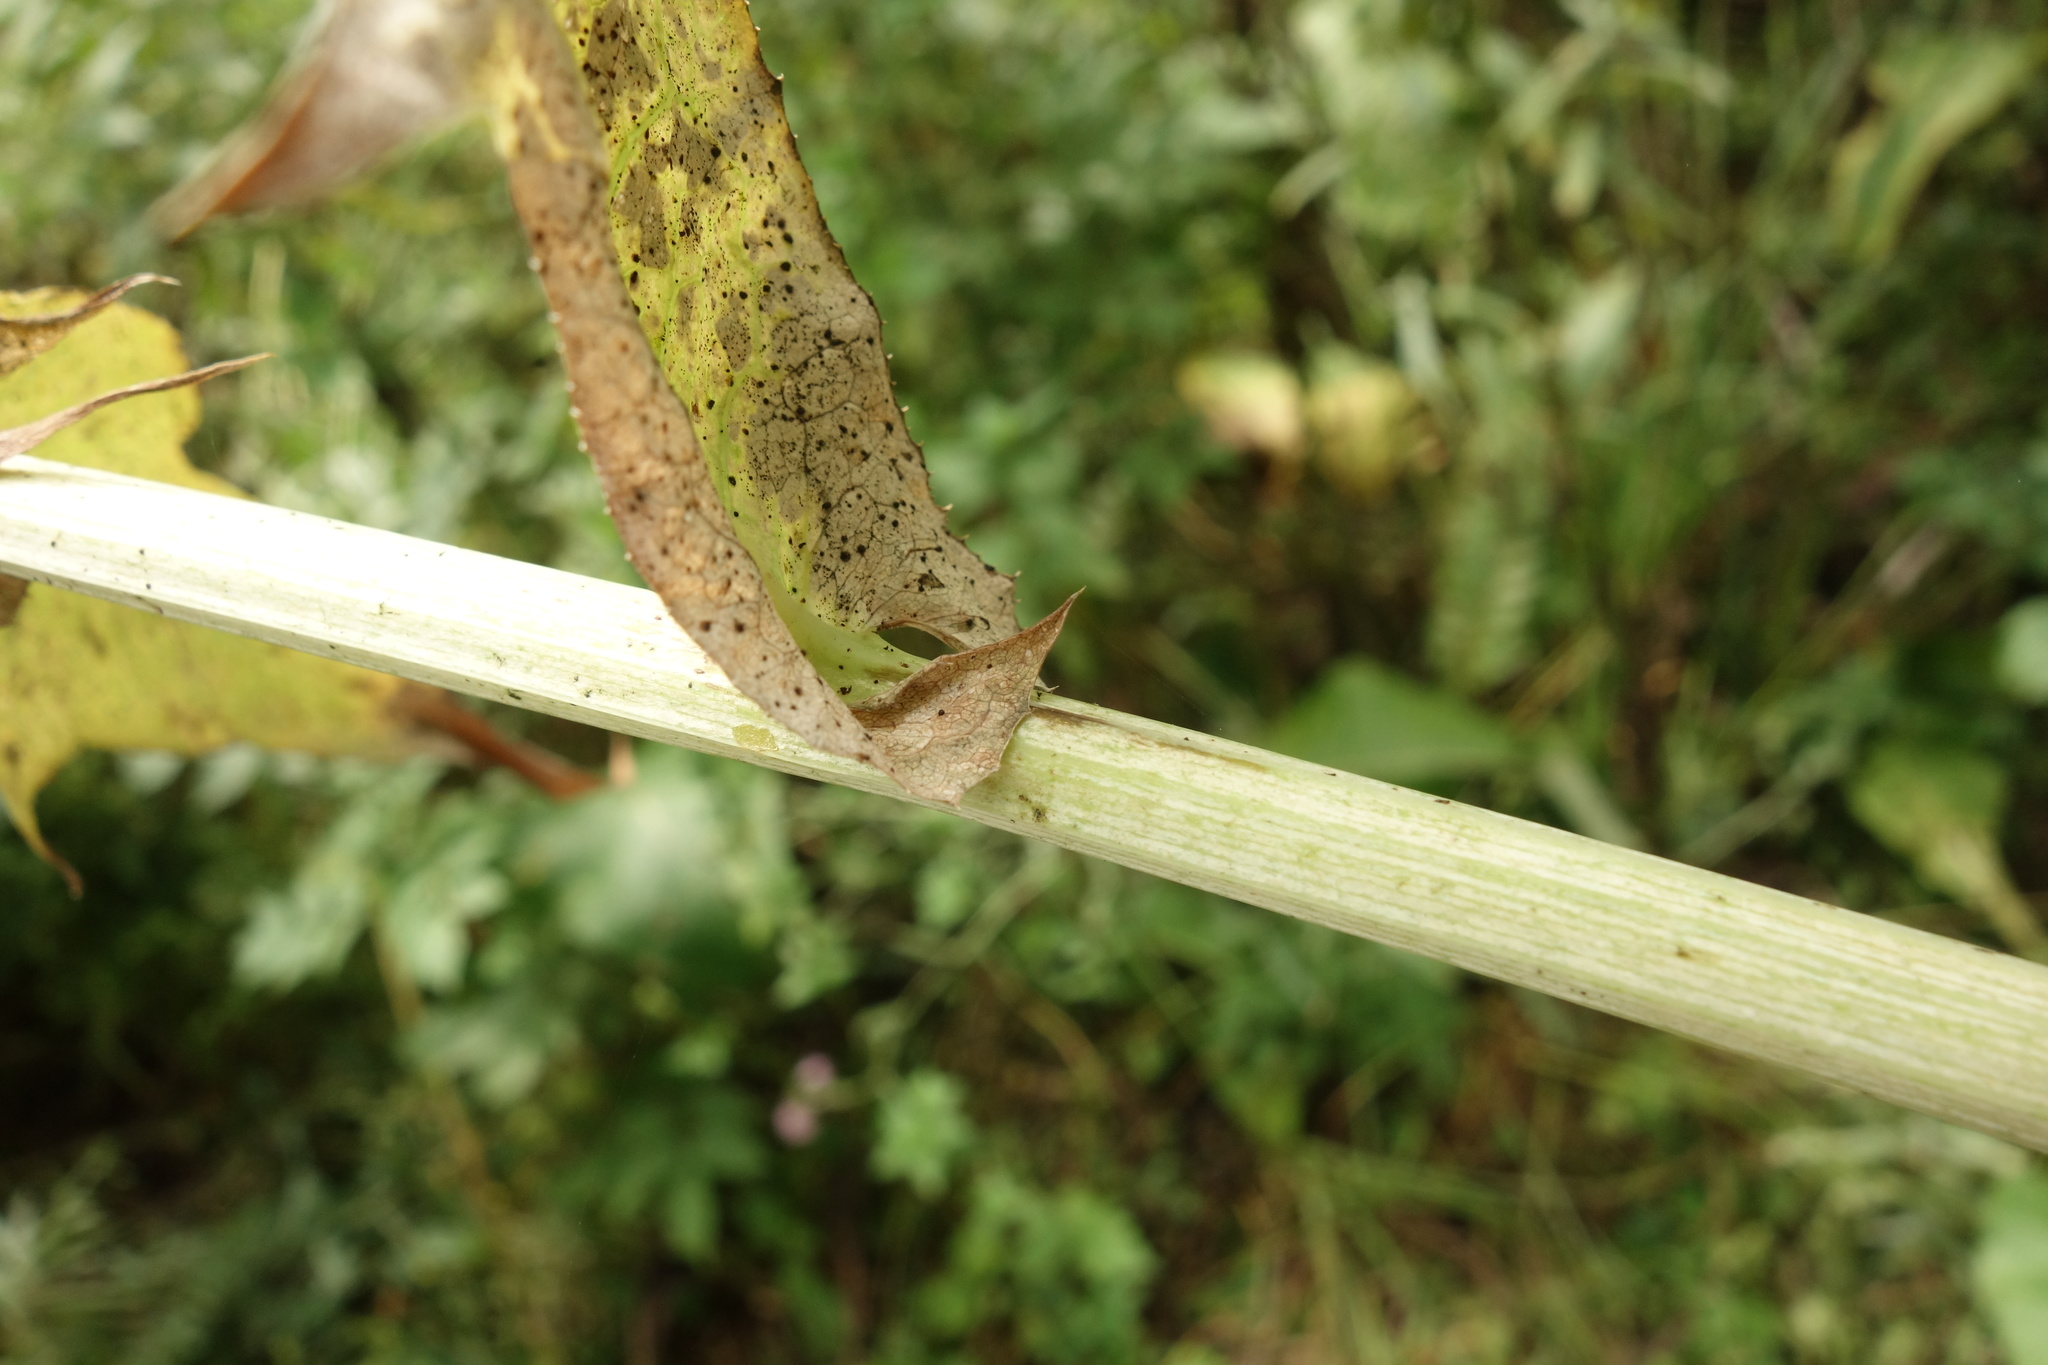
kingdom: Plantae
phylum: Tracheophyta
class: Magnoliopsida
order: Asterales
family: Asteraceae
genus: Sonchus
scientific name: Sonchus palustris
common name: Marsh sow-thistle
